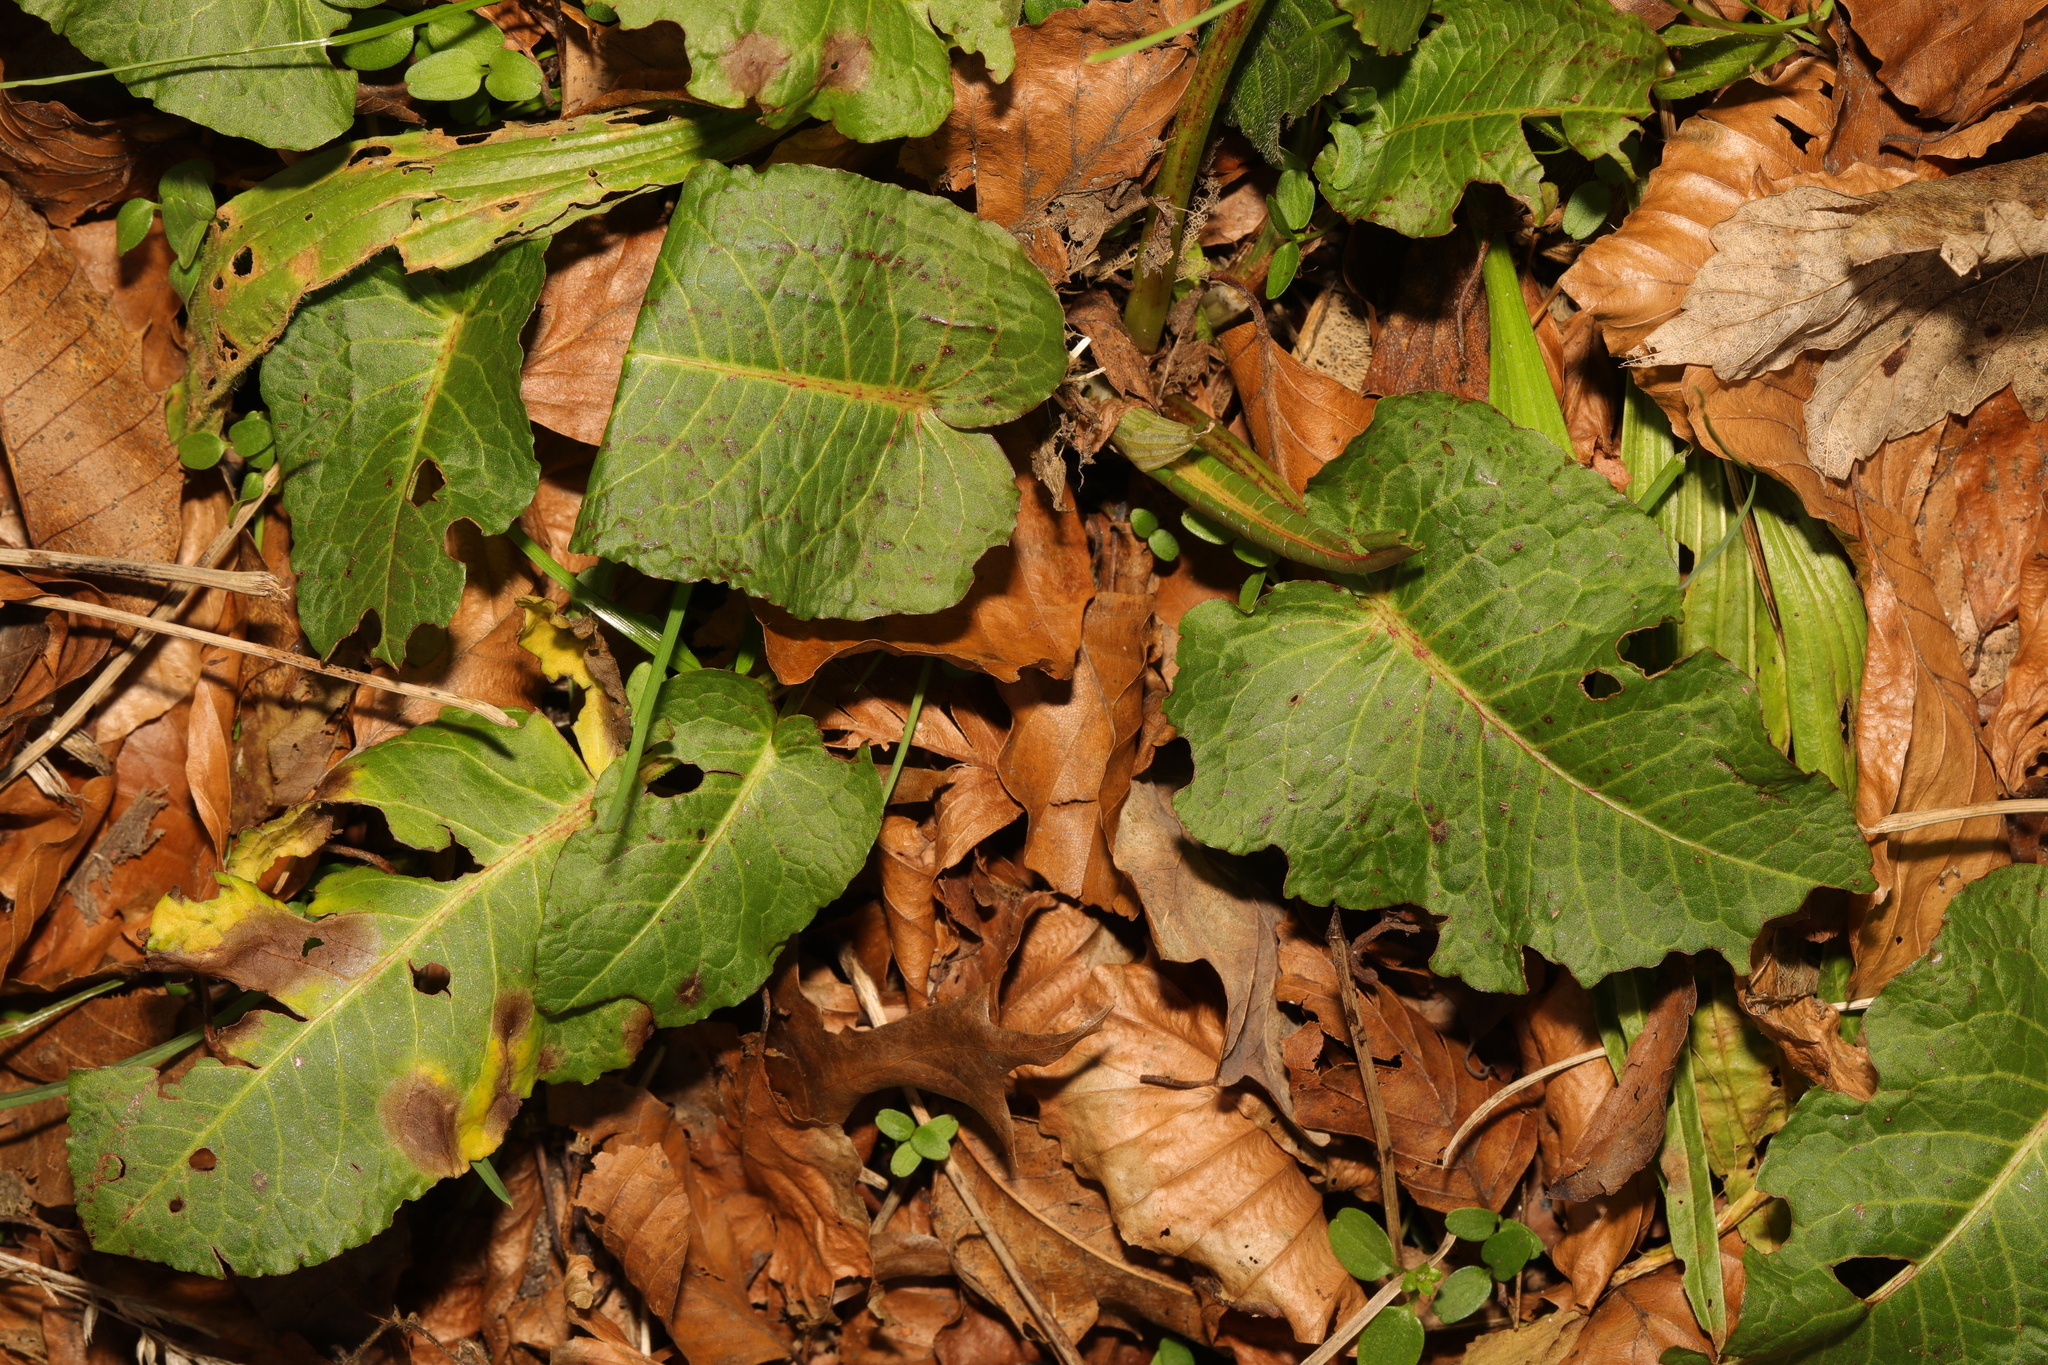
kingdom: Plantae
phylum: Tracheophyta
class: Magnoliopsida
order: Caryophyllales
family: Polygonaceae
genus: Rumex
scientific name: Rumex obtusifolius
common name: Bitter dock
